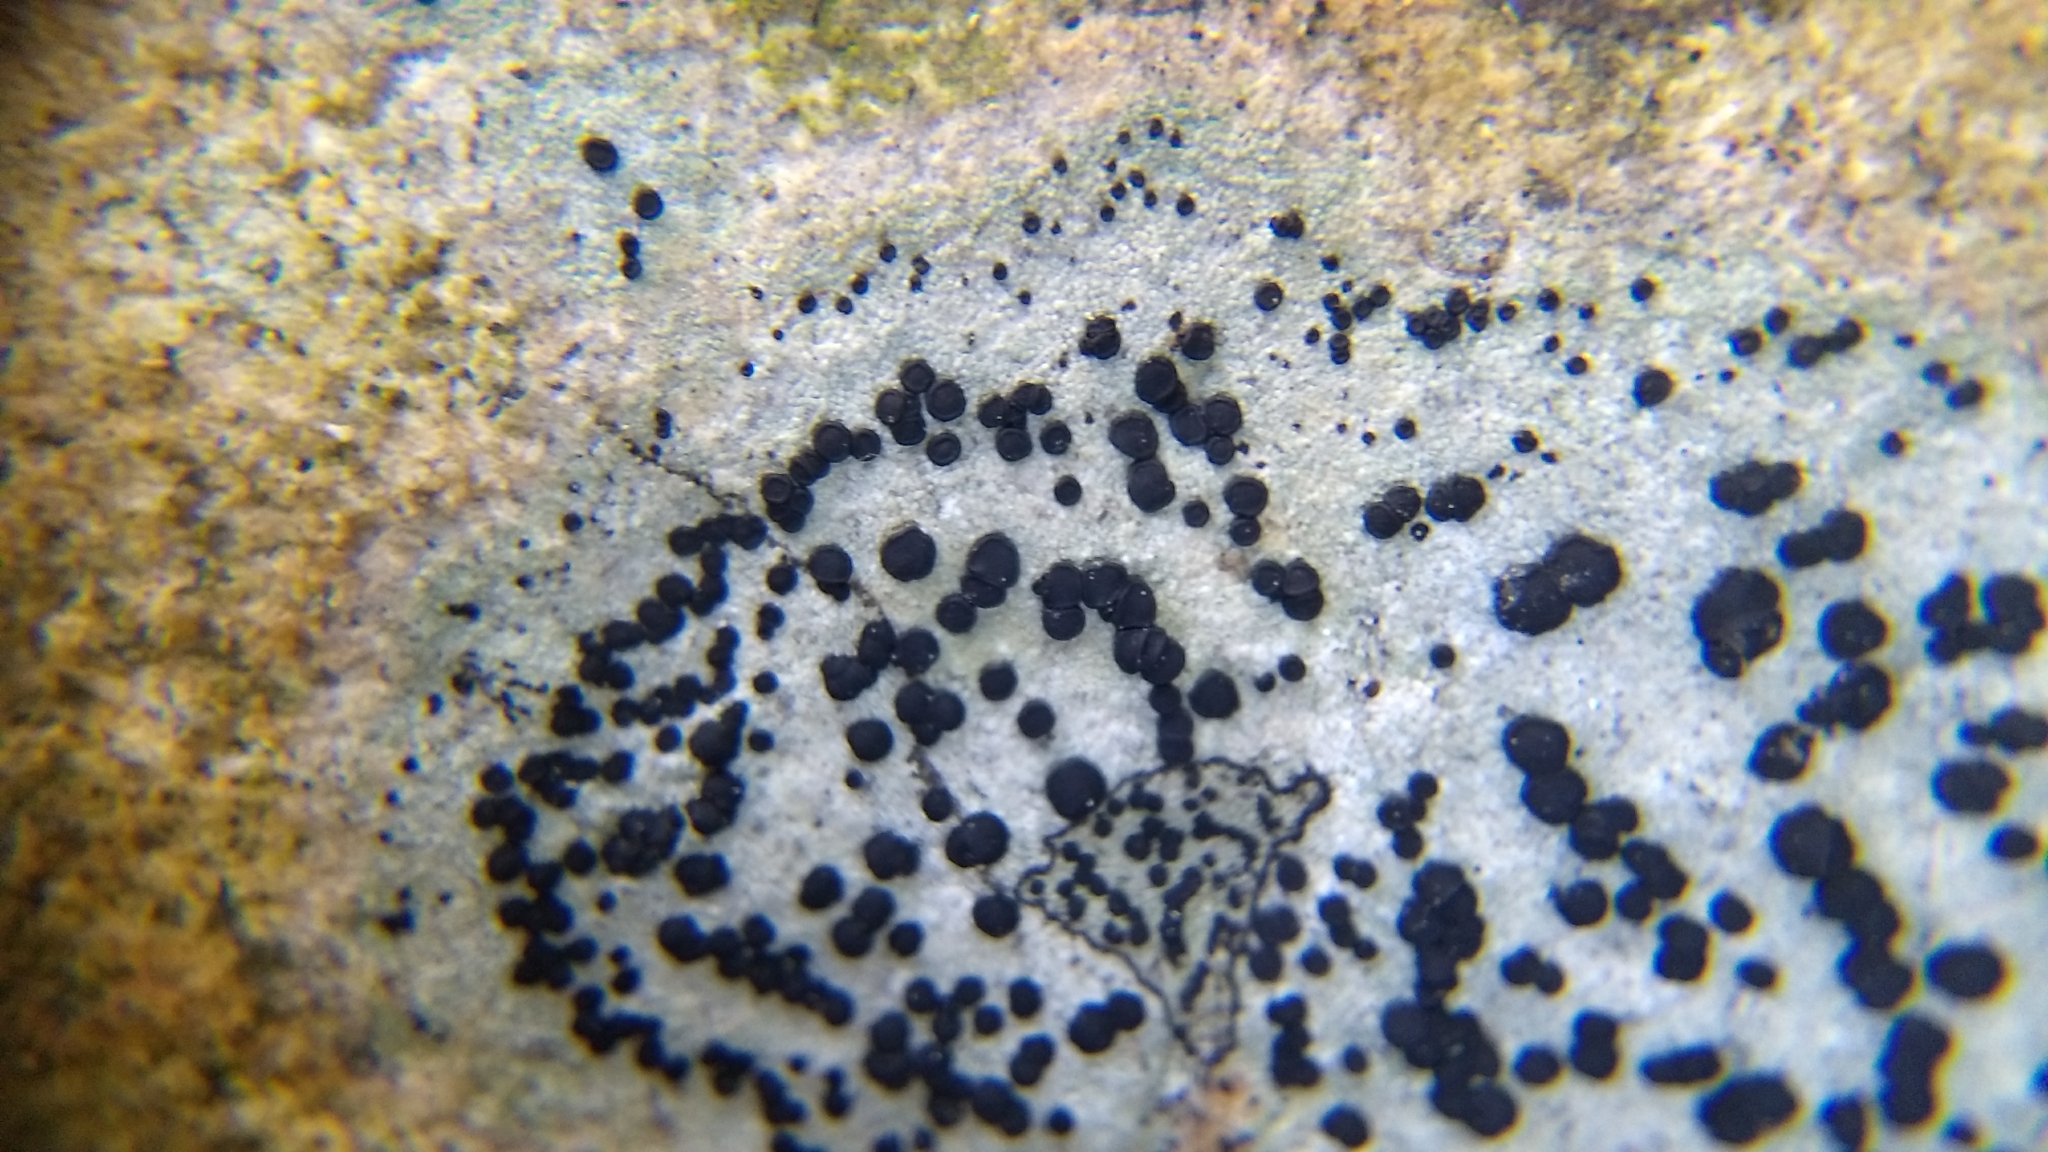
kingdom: Fungi
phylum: Ascomycota
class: Lecanoromycetes
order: Lecideales
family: Lecideaceae
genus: Porpidia
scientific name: Porpidia albocaerulescens
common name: Smokey-eyed boulder lichen
